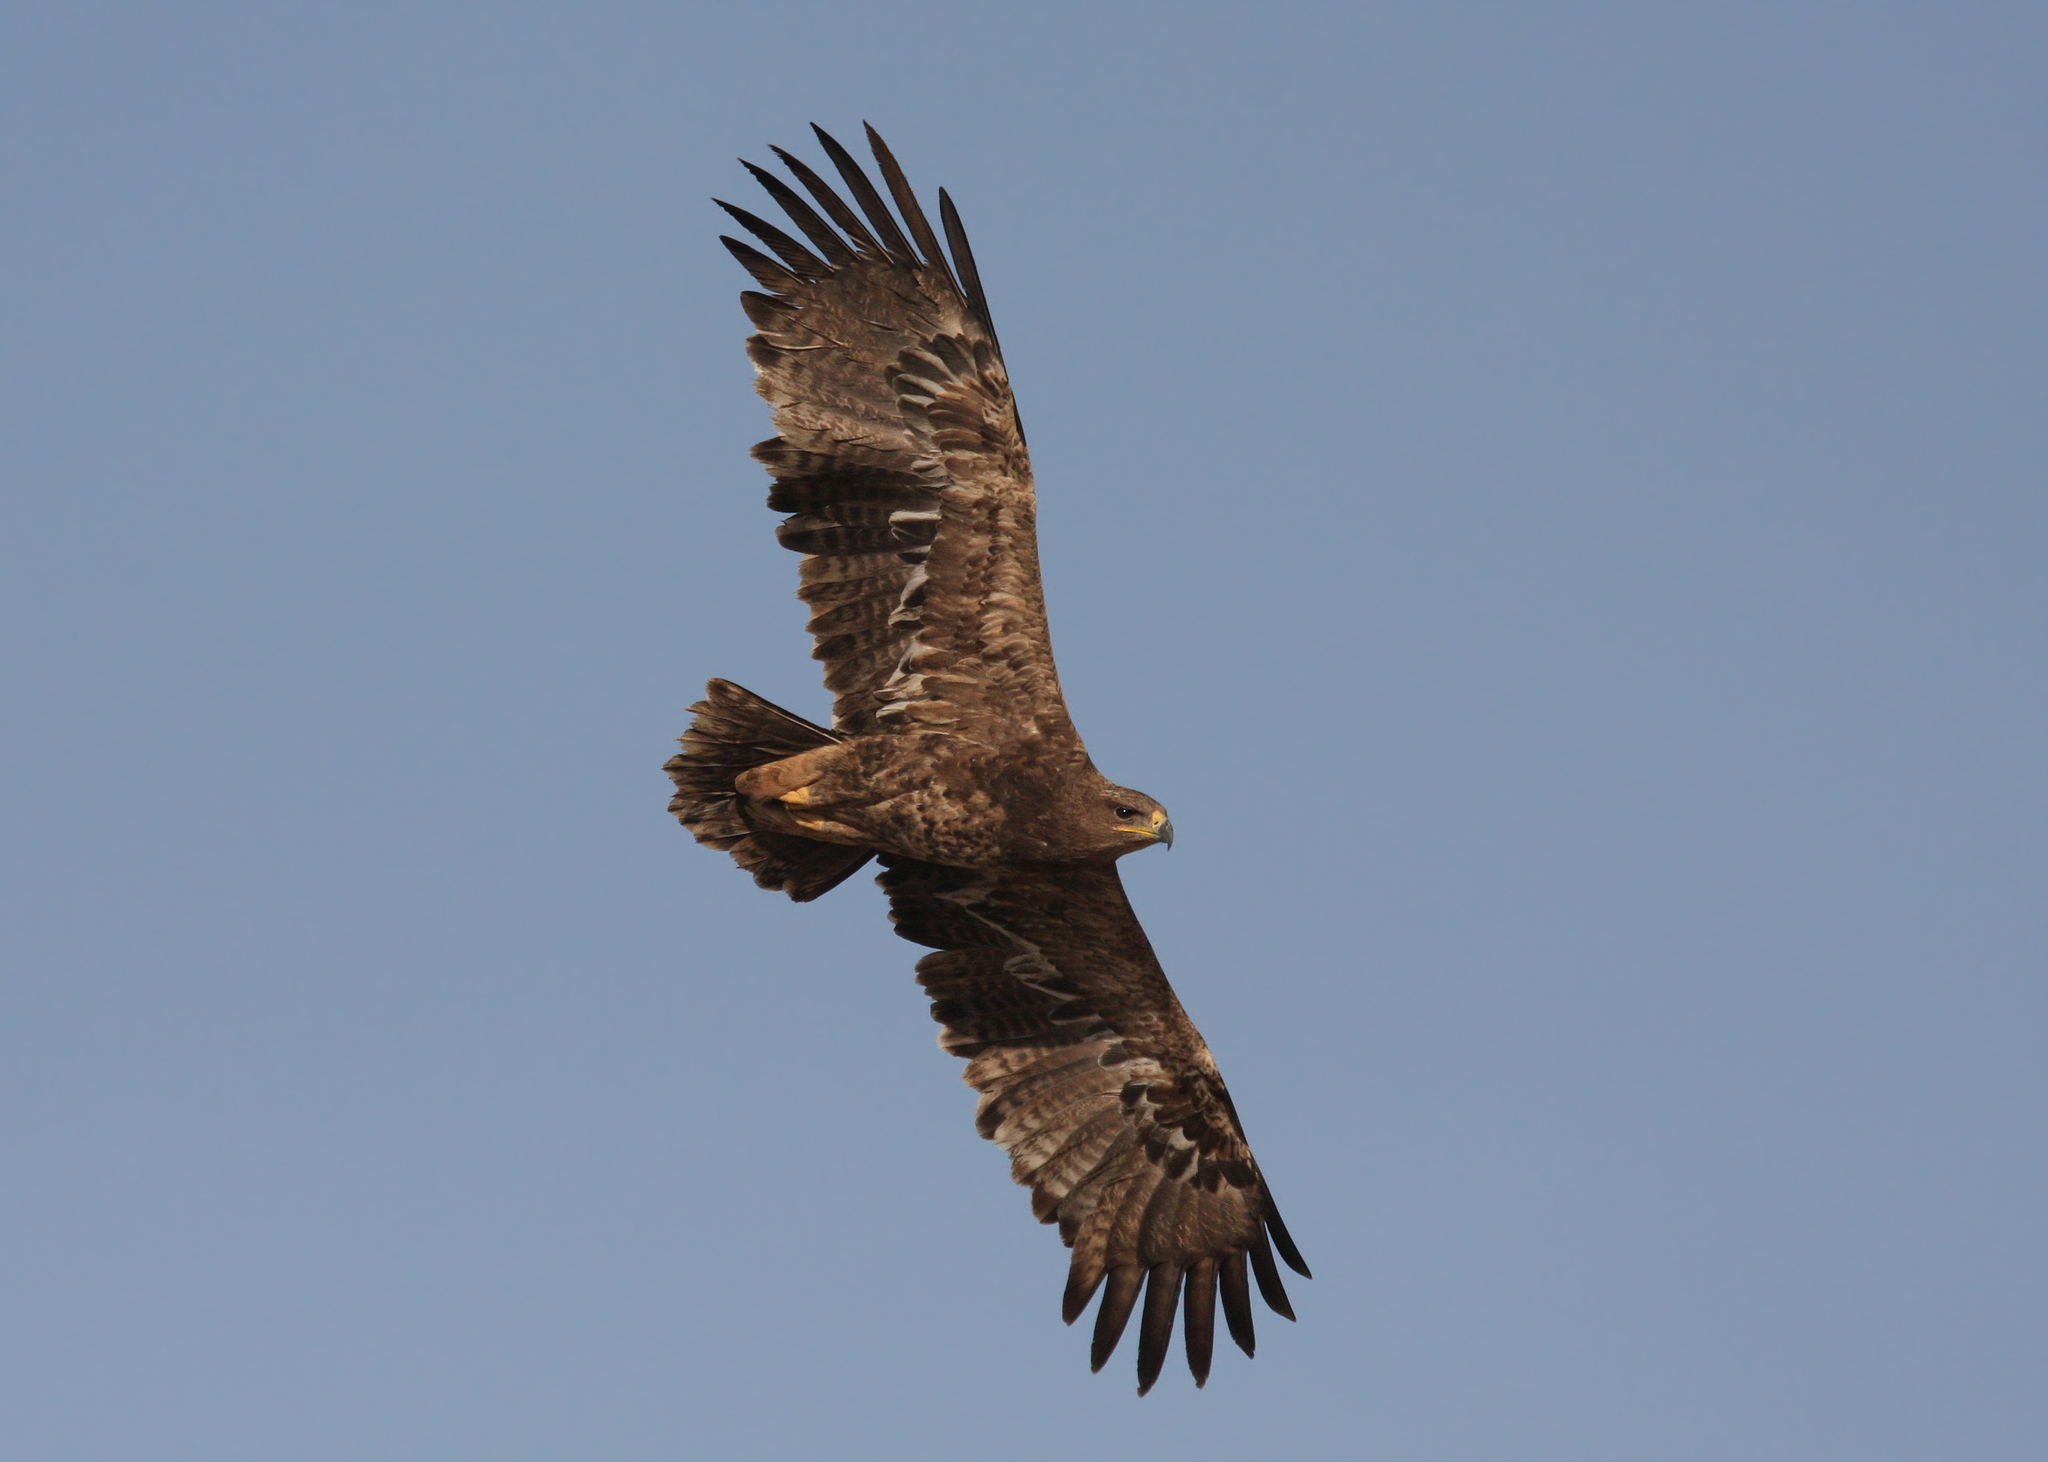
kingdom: Animalia
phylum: Chordata
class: Aves
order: Accipitriformes
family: Accipitridae
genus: Aquila
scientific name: Aquila nipalensis
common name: Steppe eagle
